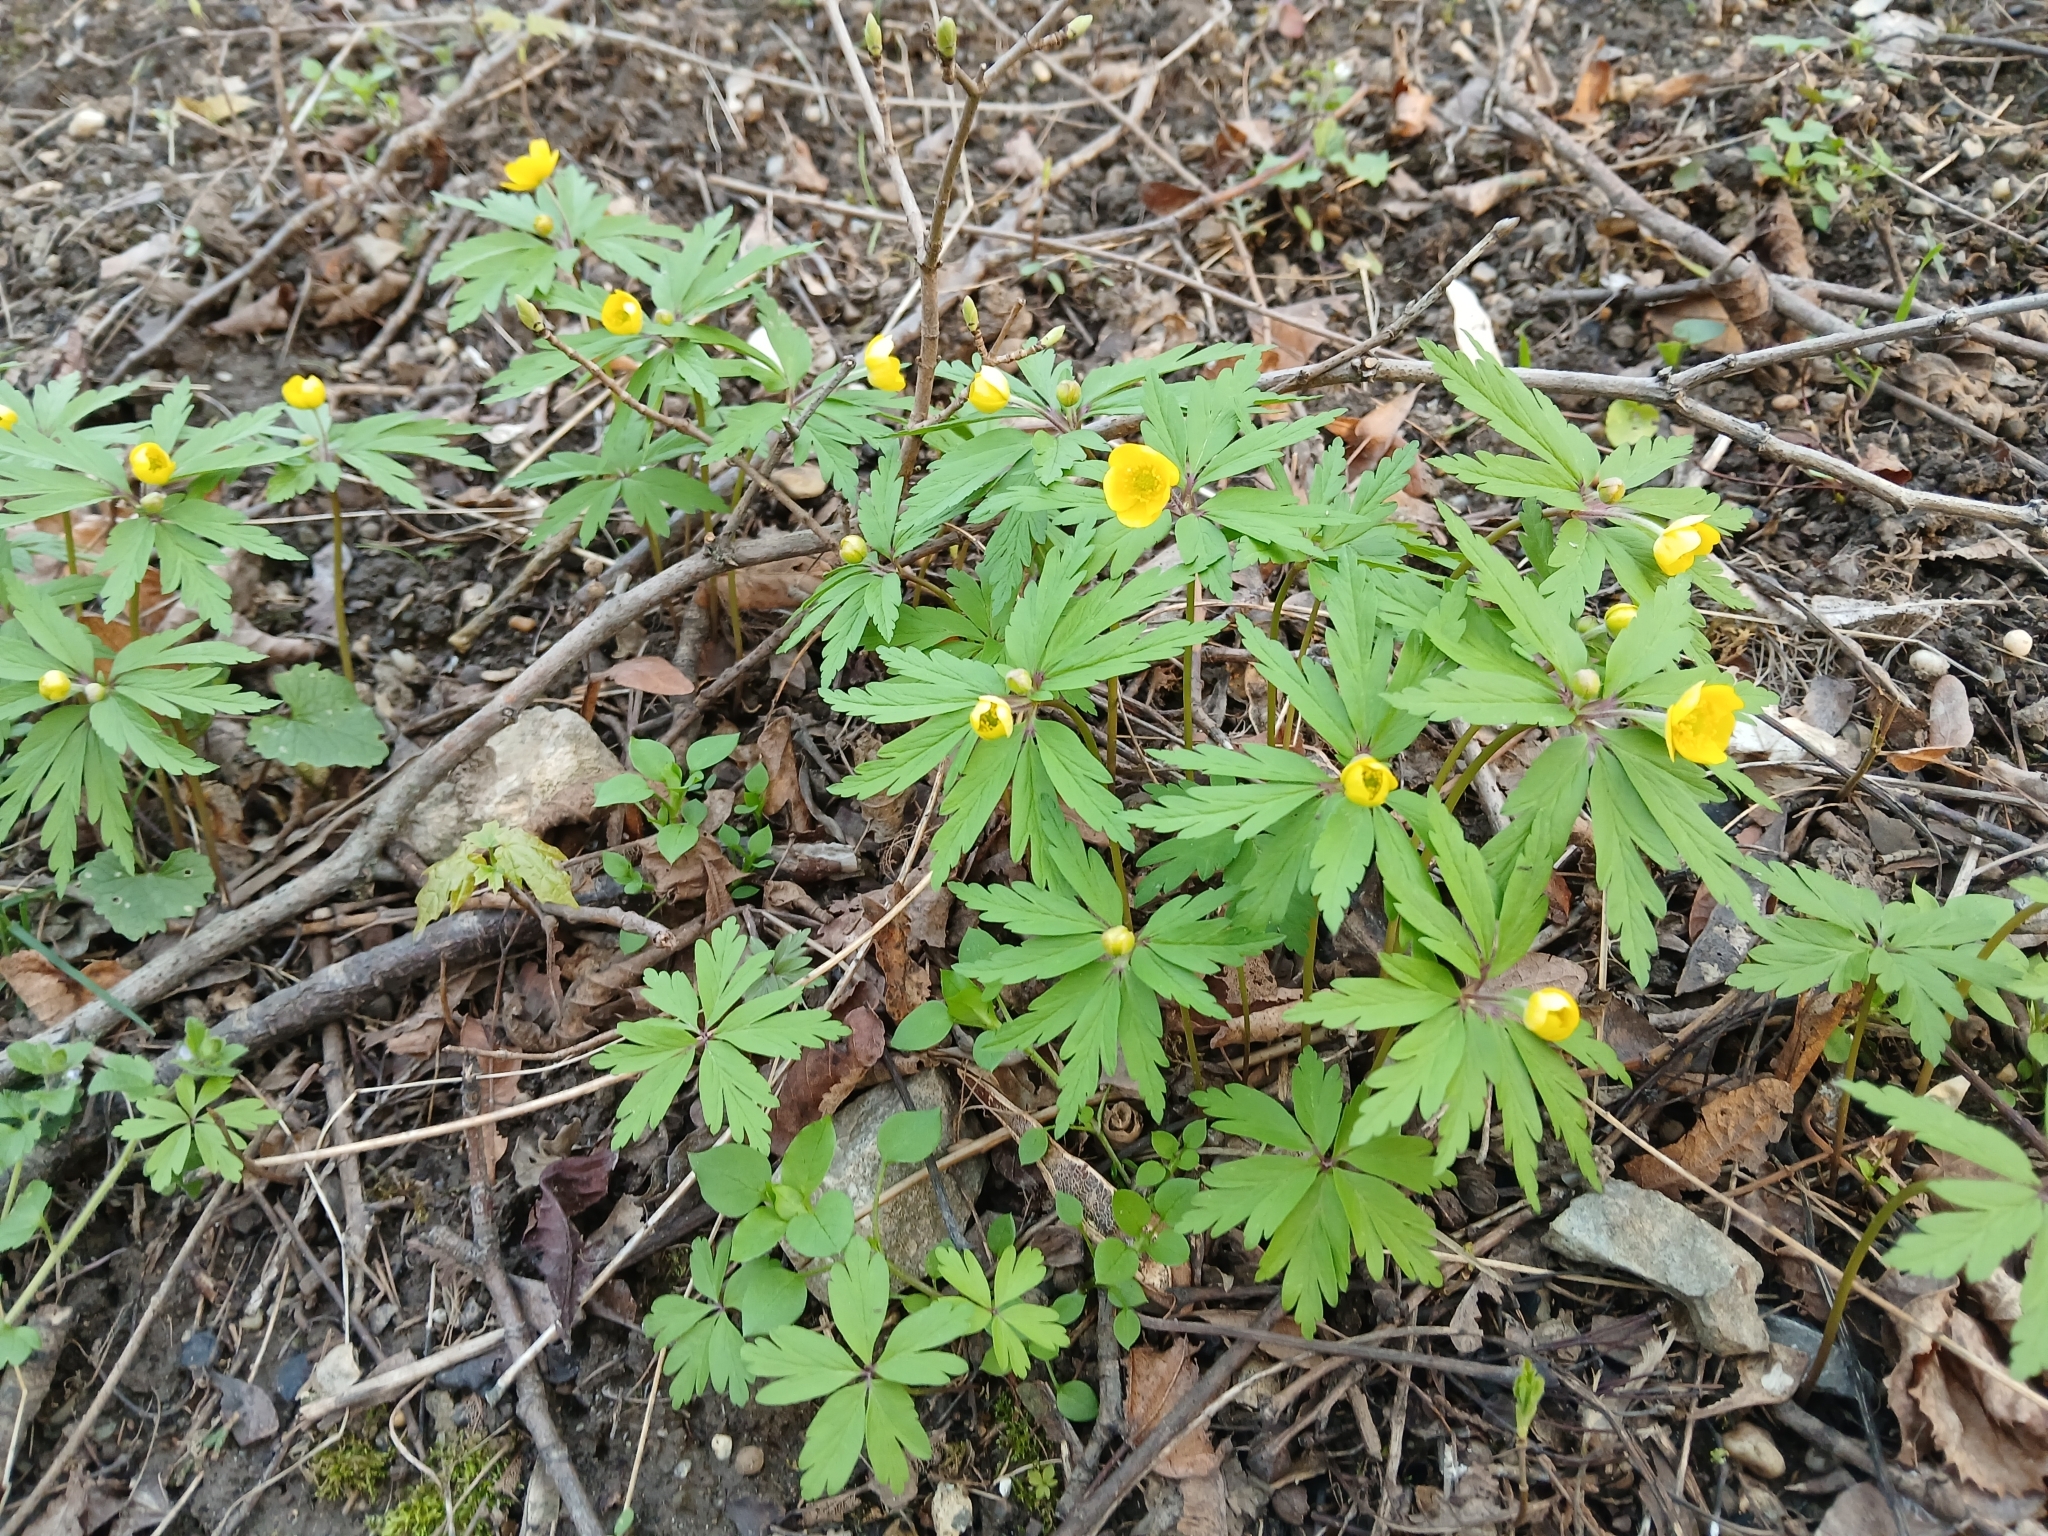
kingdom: Plantae
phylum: Tracheophyta
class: Magnoliopsida
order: Ranunculales
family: Ranunculaceae
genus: Anemone
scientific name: Anemone ranunculoides
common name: Yellow anemone
